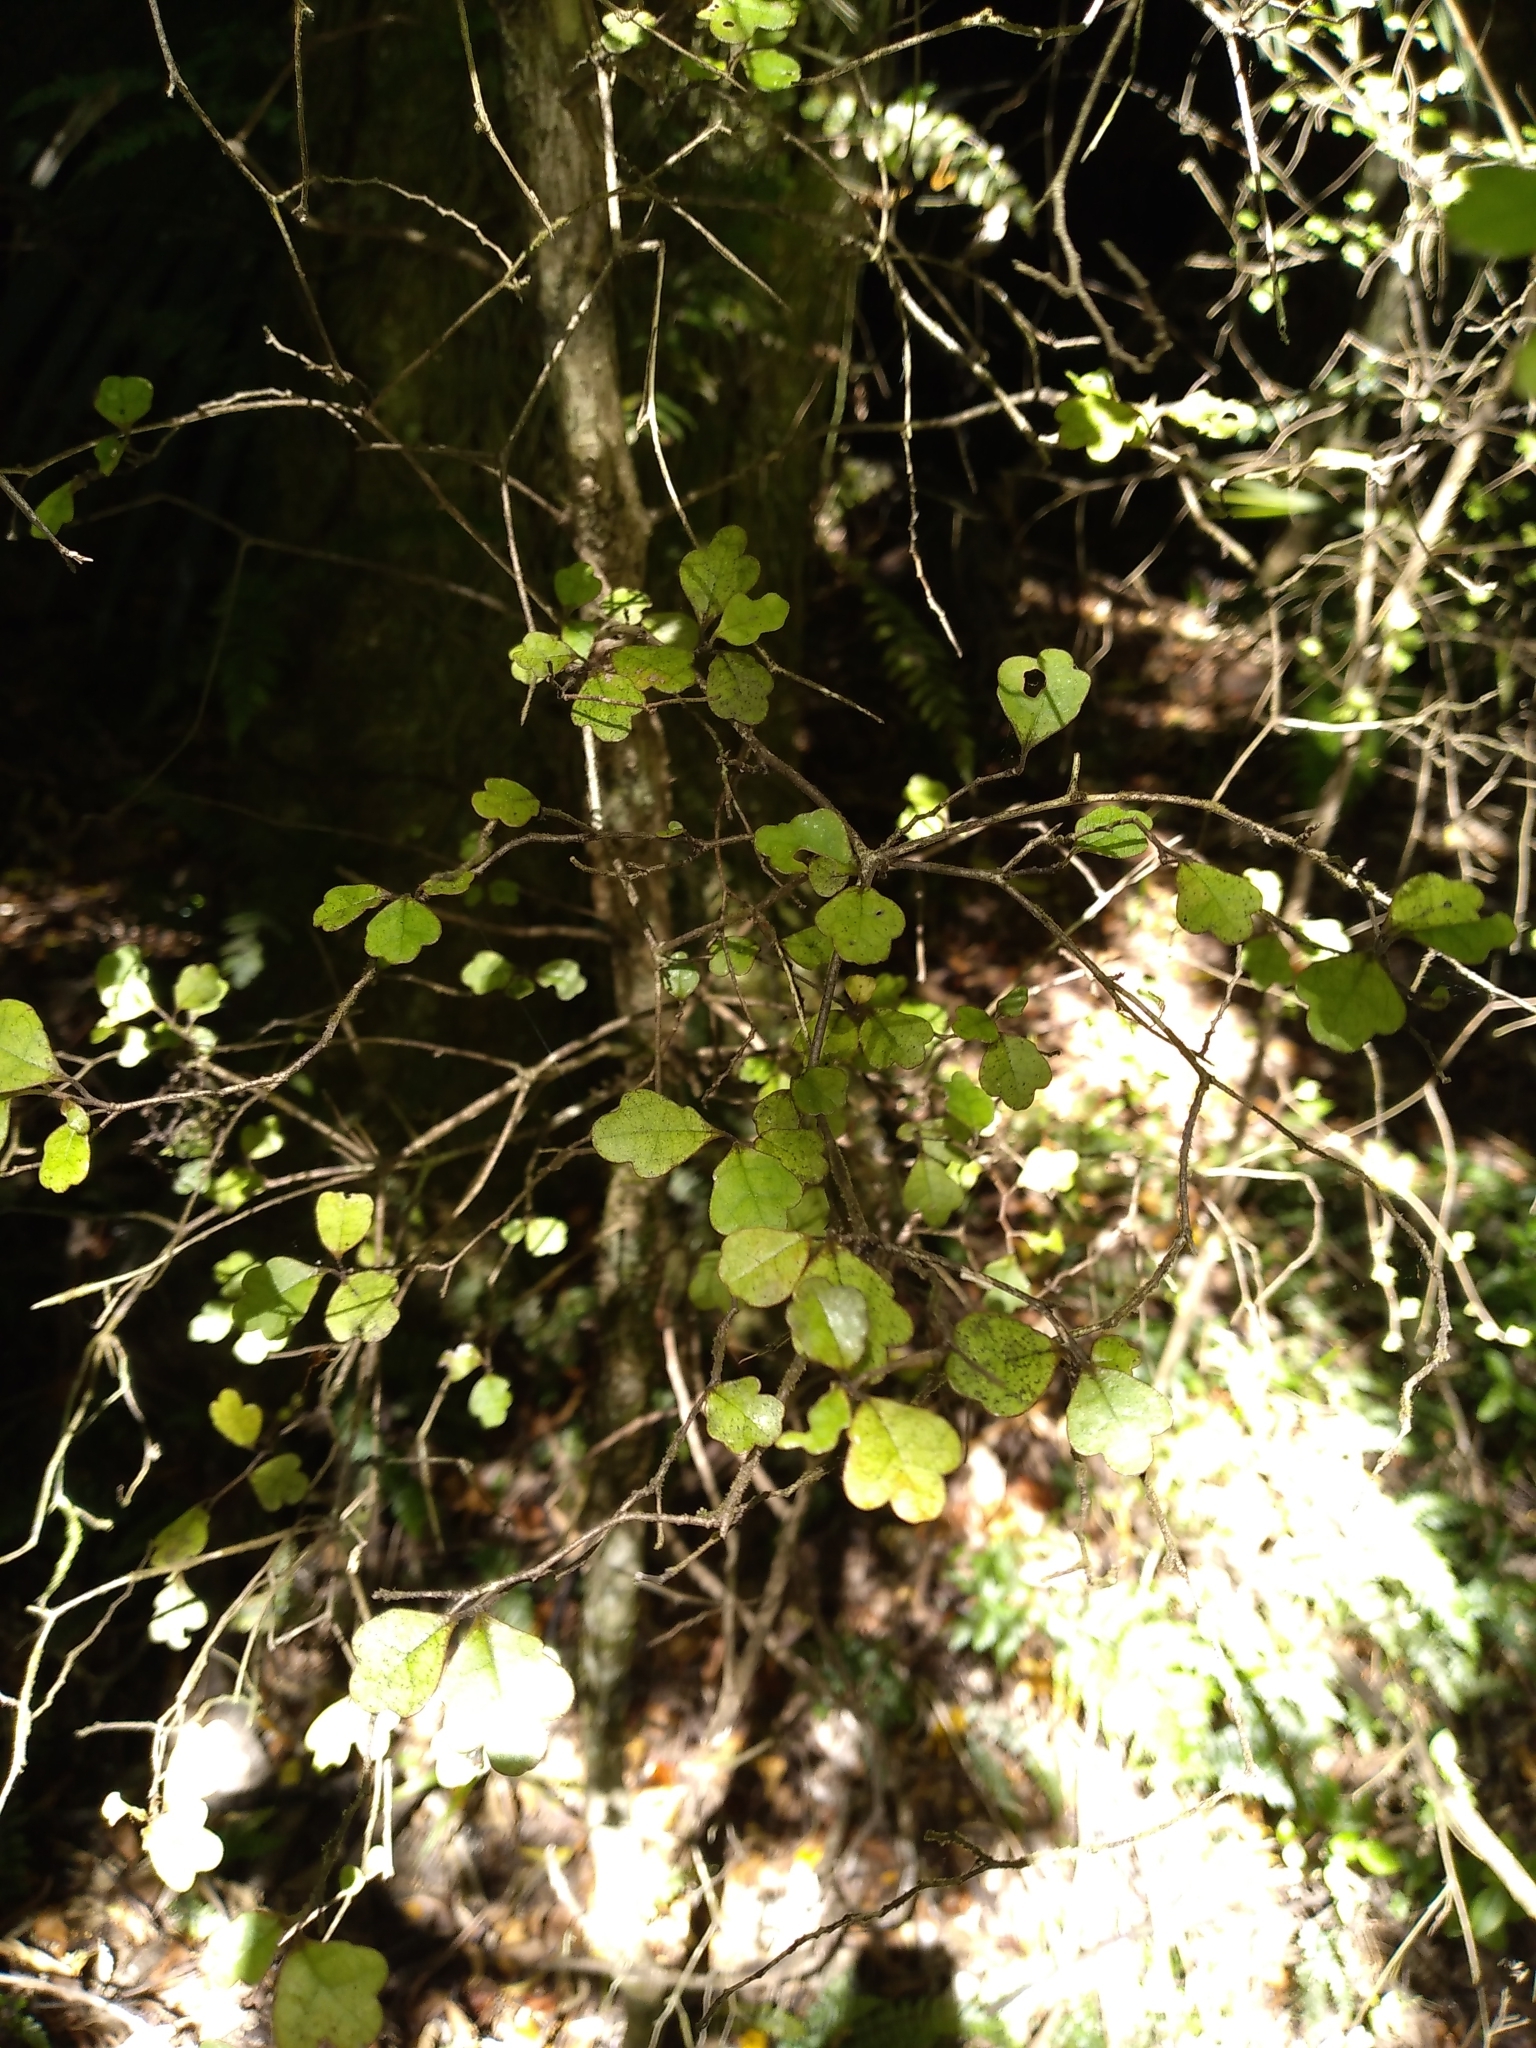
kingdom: Plantae
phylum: Tracheophyta
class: Magnoliopsida
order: Apiales
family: Pennantiaceae
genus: Pennantia
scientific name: Pennantia corymbosa
